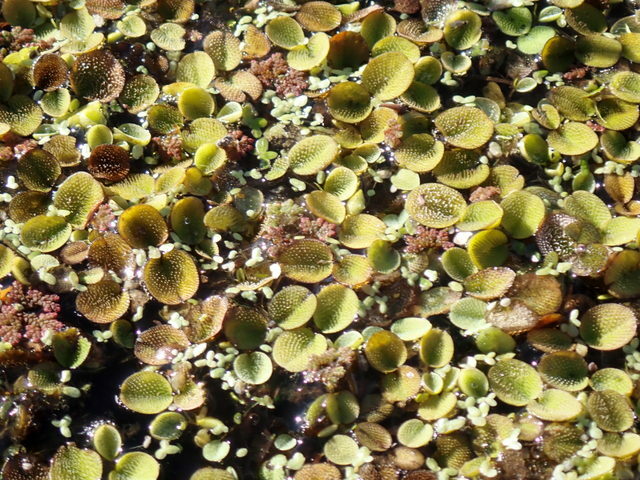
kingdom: Plantae
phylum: Tracheophyta
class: Polypodiopsida
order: Salviniales
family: Salviniaceae
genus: Salvinia
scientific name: Salvinia minima
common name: Water spangles
